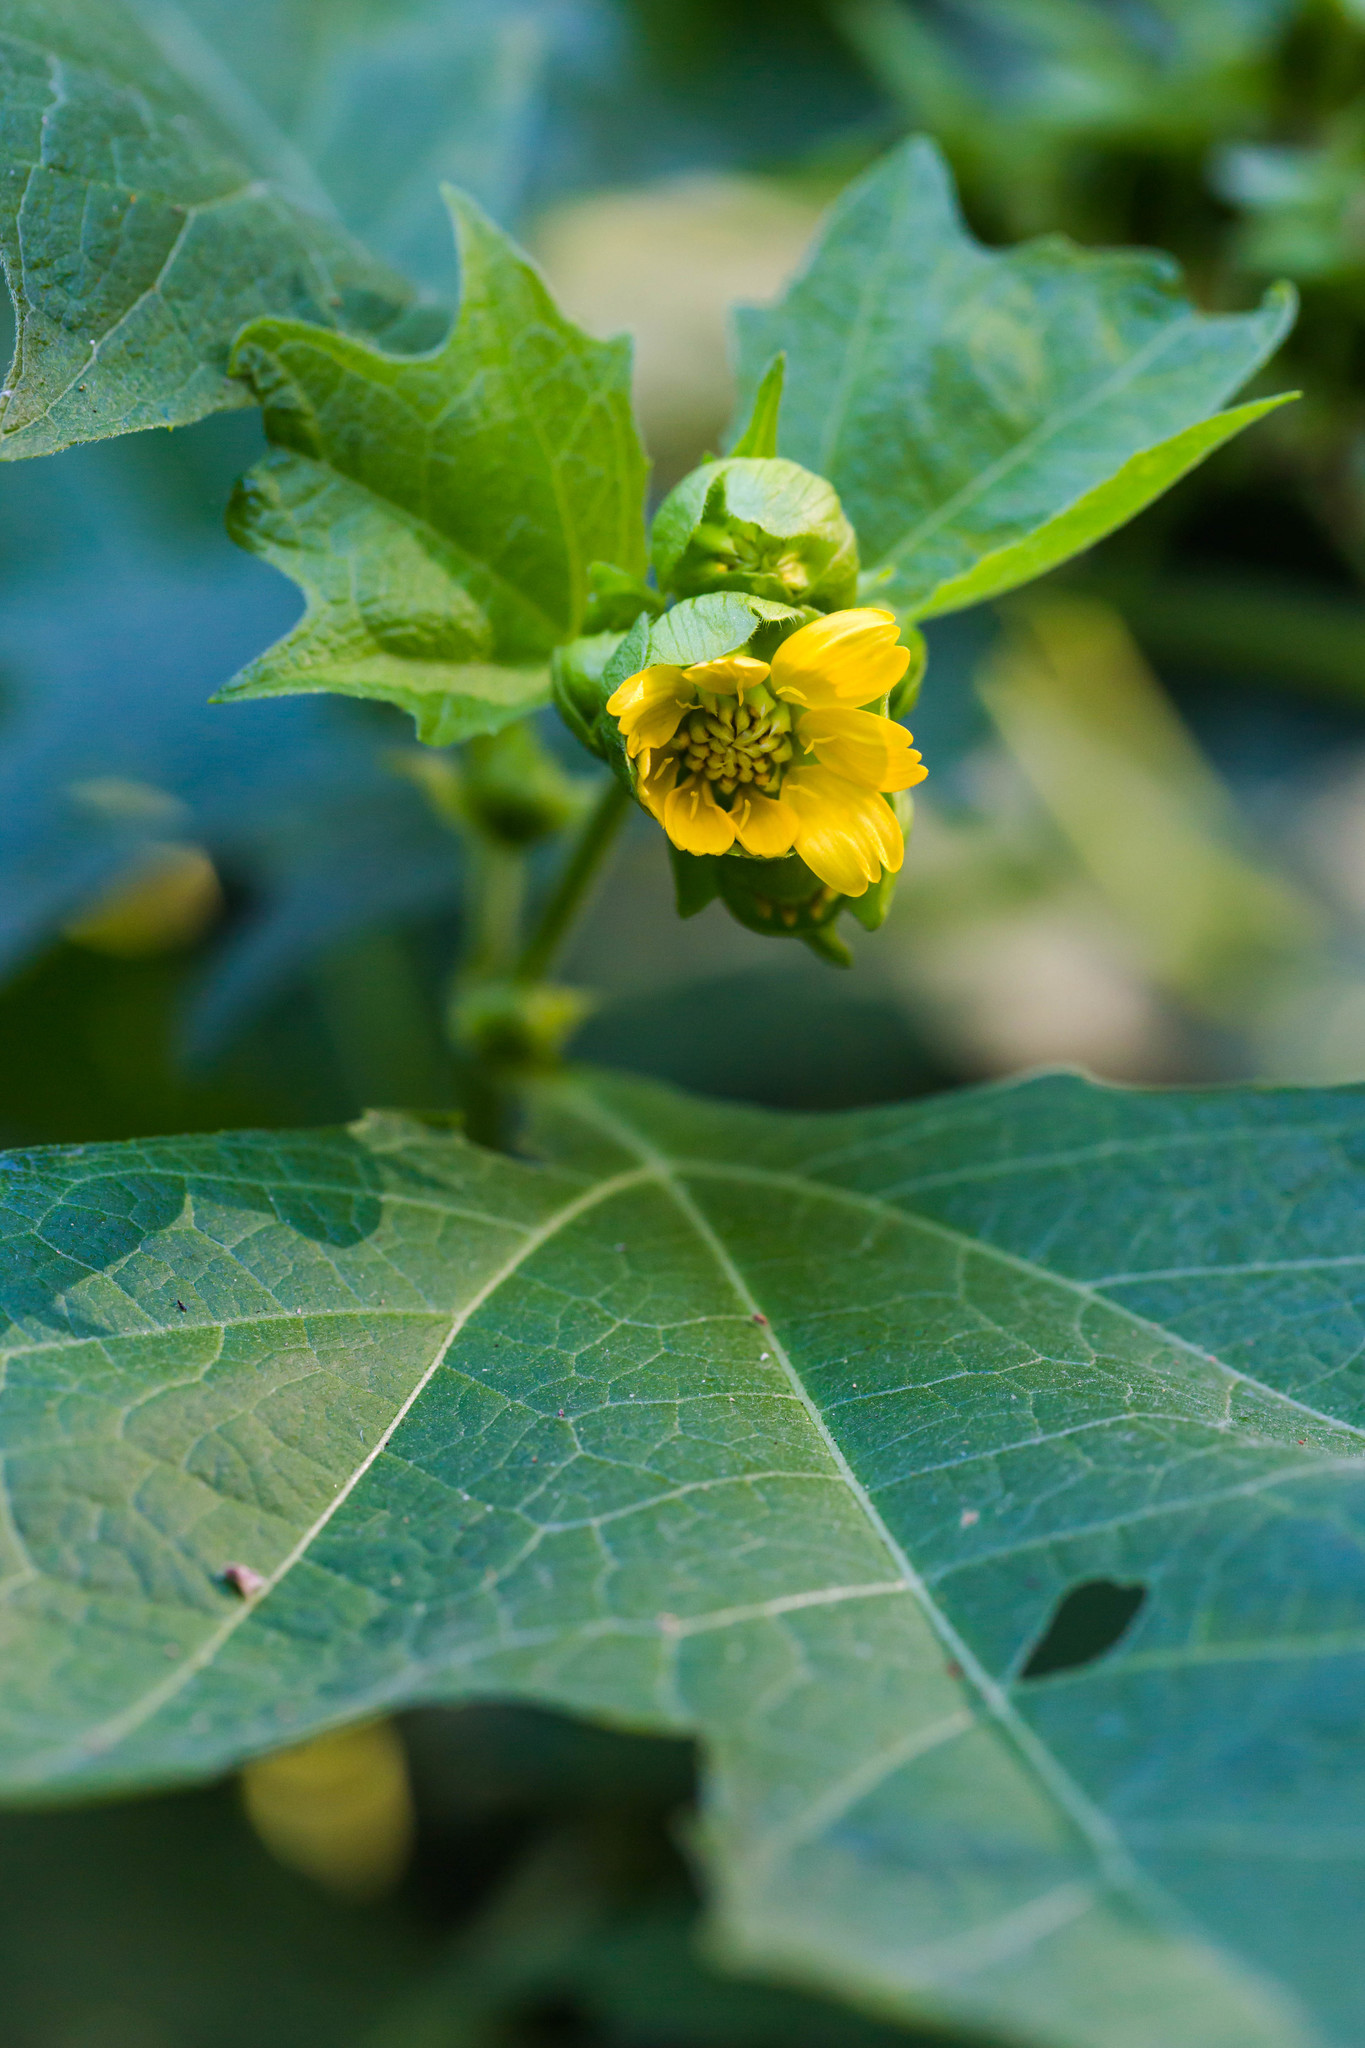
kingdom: Plantae
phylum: Tracheophyta
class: Magnoliopsida
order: Asterales
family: Asteraceae
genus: Smallanthus
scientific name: Smallanthus uvedalia
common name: Bear's-foot
